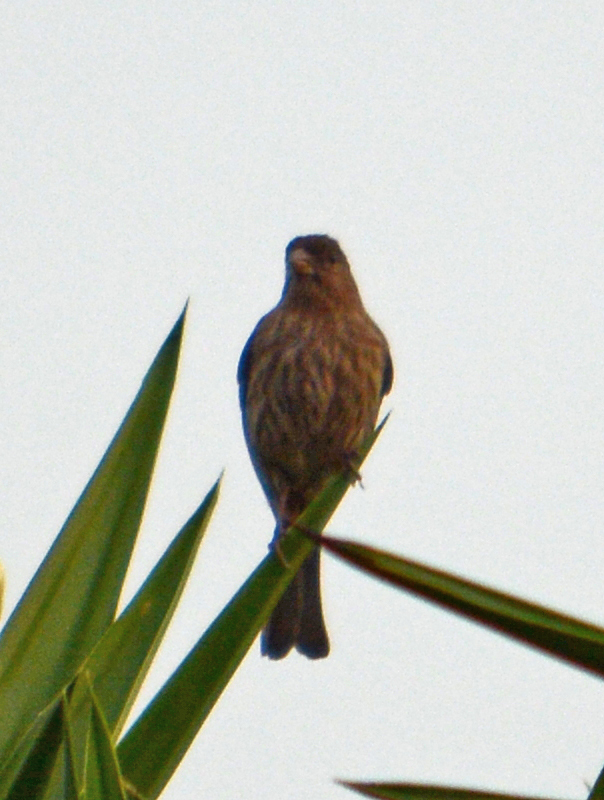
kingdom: Animalia
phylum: Chordata
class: Aves
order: Passeriformes
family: Fringillidae
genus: Haemorhous
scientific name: Haemorhous mexicanus
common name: House finch
